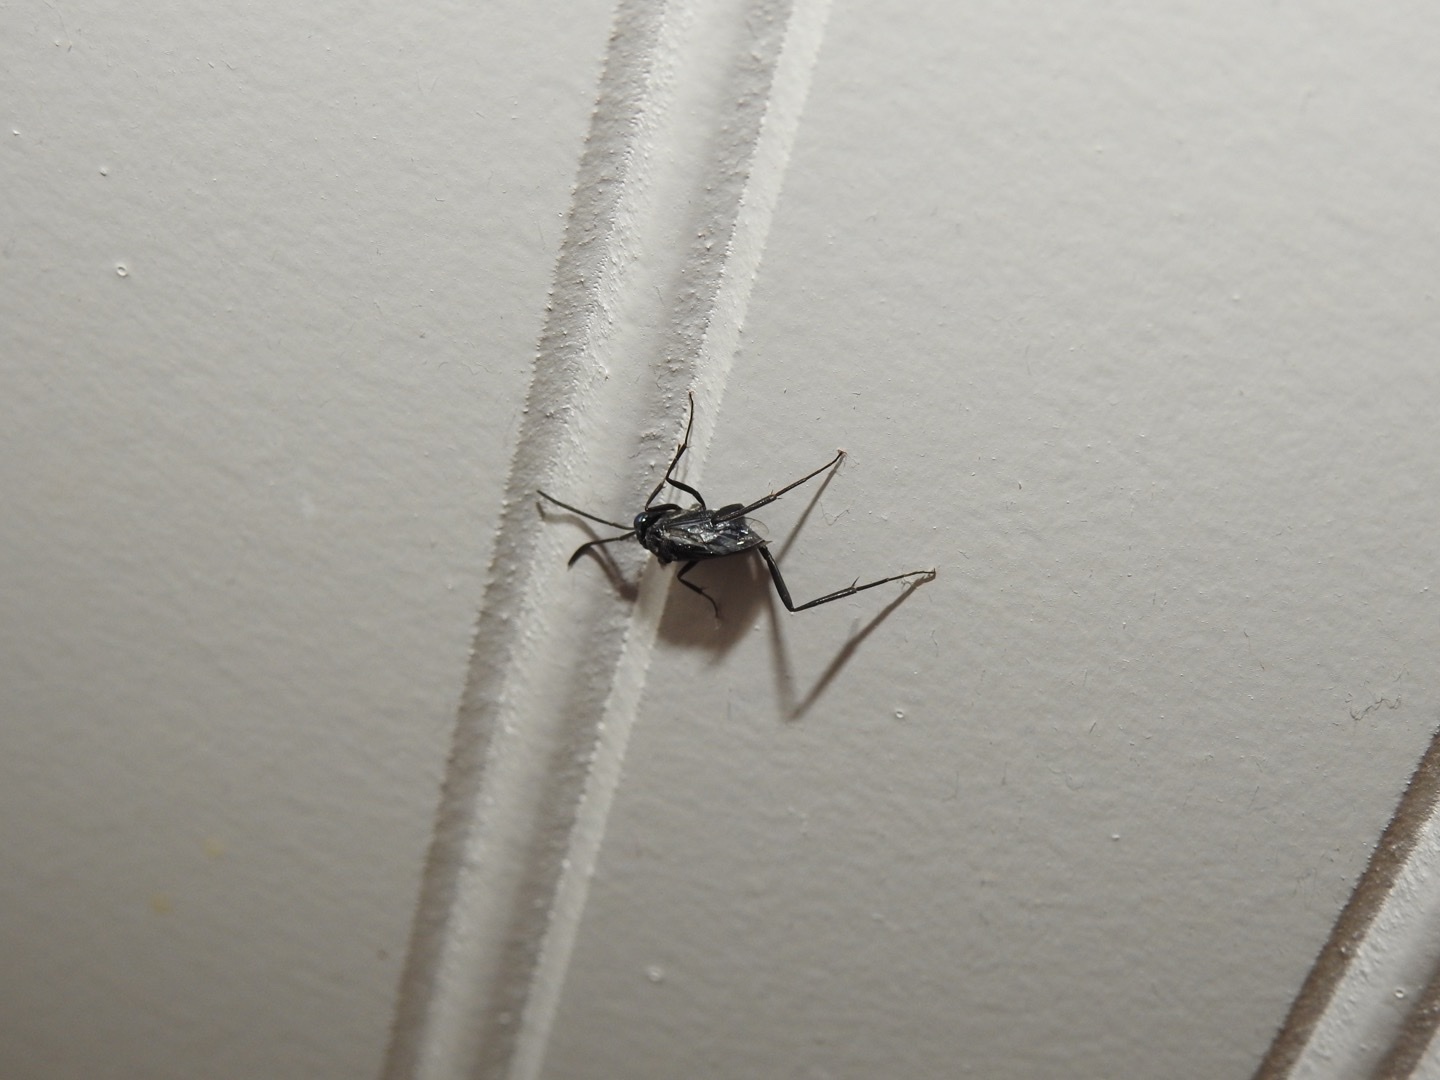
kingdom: Animalia
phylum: Arthropoda
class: Insecta
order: Hymenoptera
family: Evaniidae
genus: Evania
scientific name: Evania appendigaster
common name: Ensign wasp
